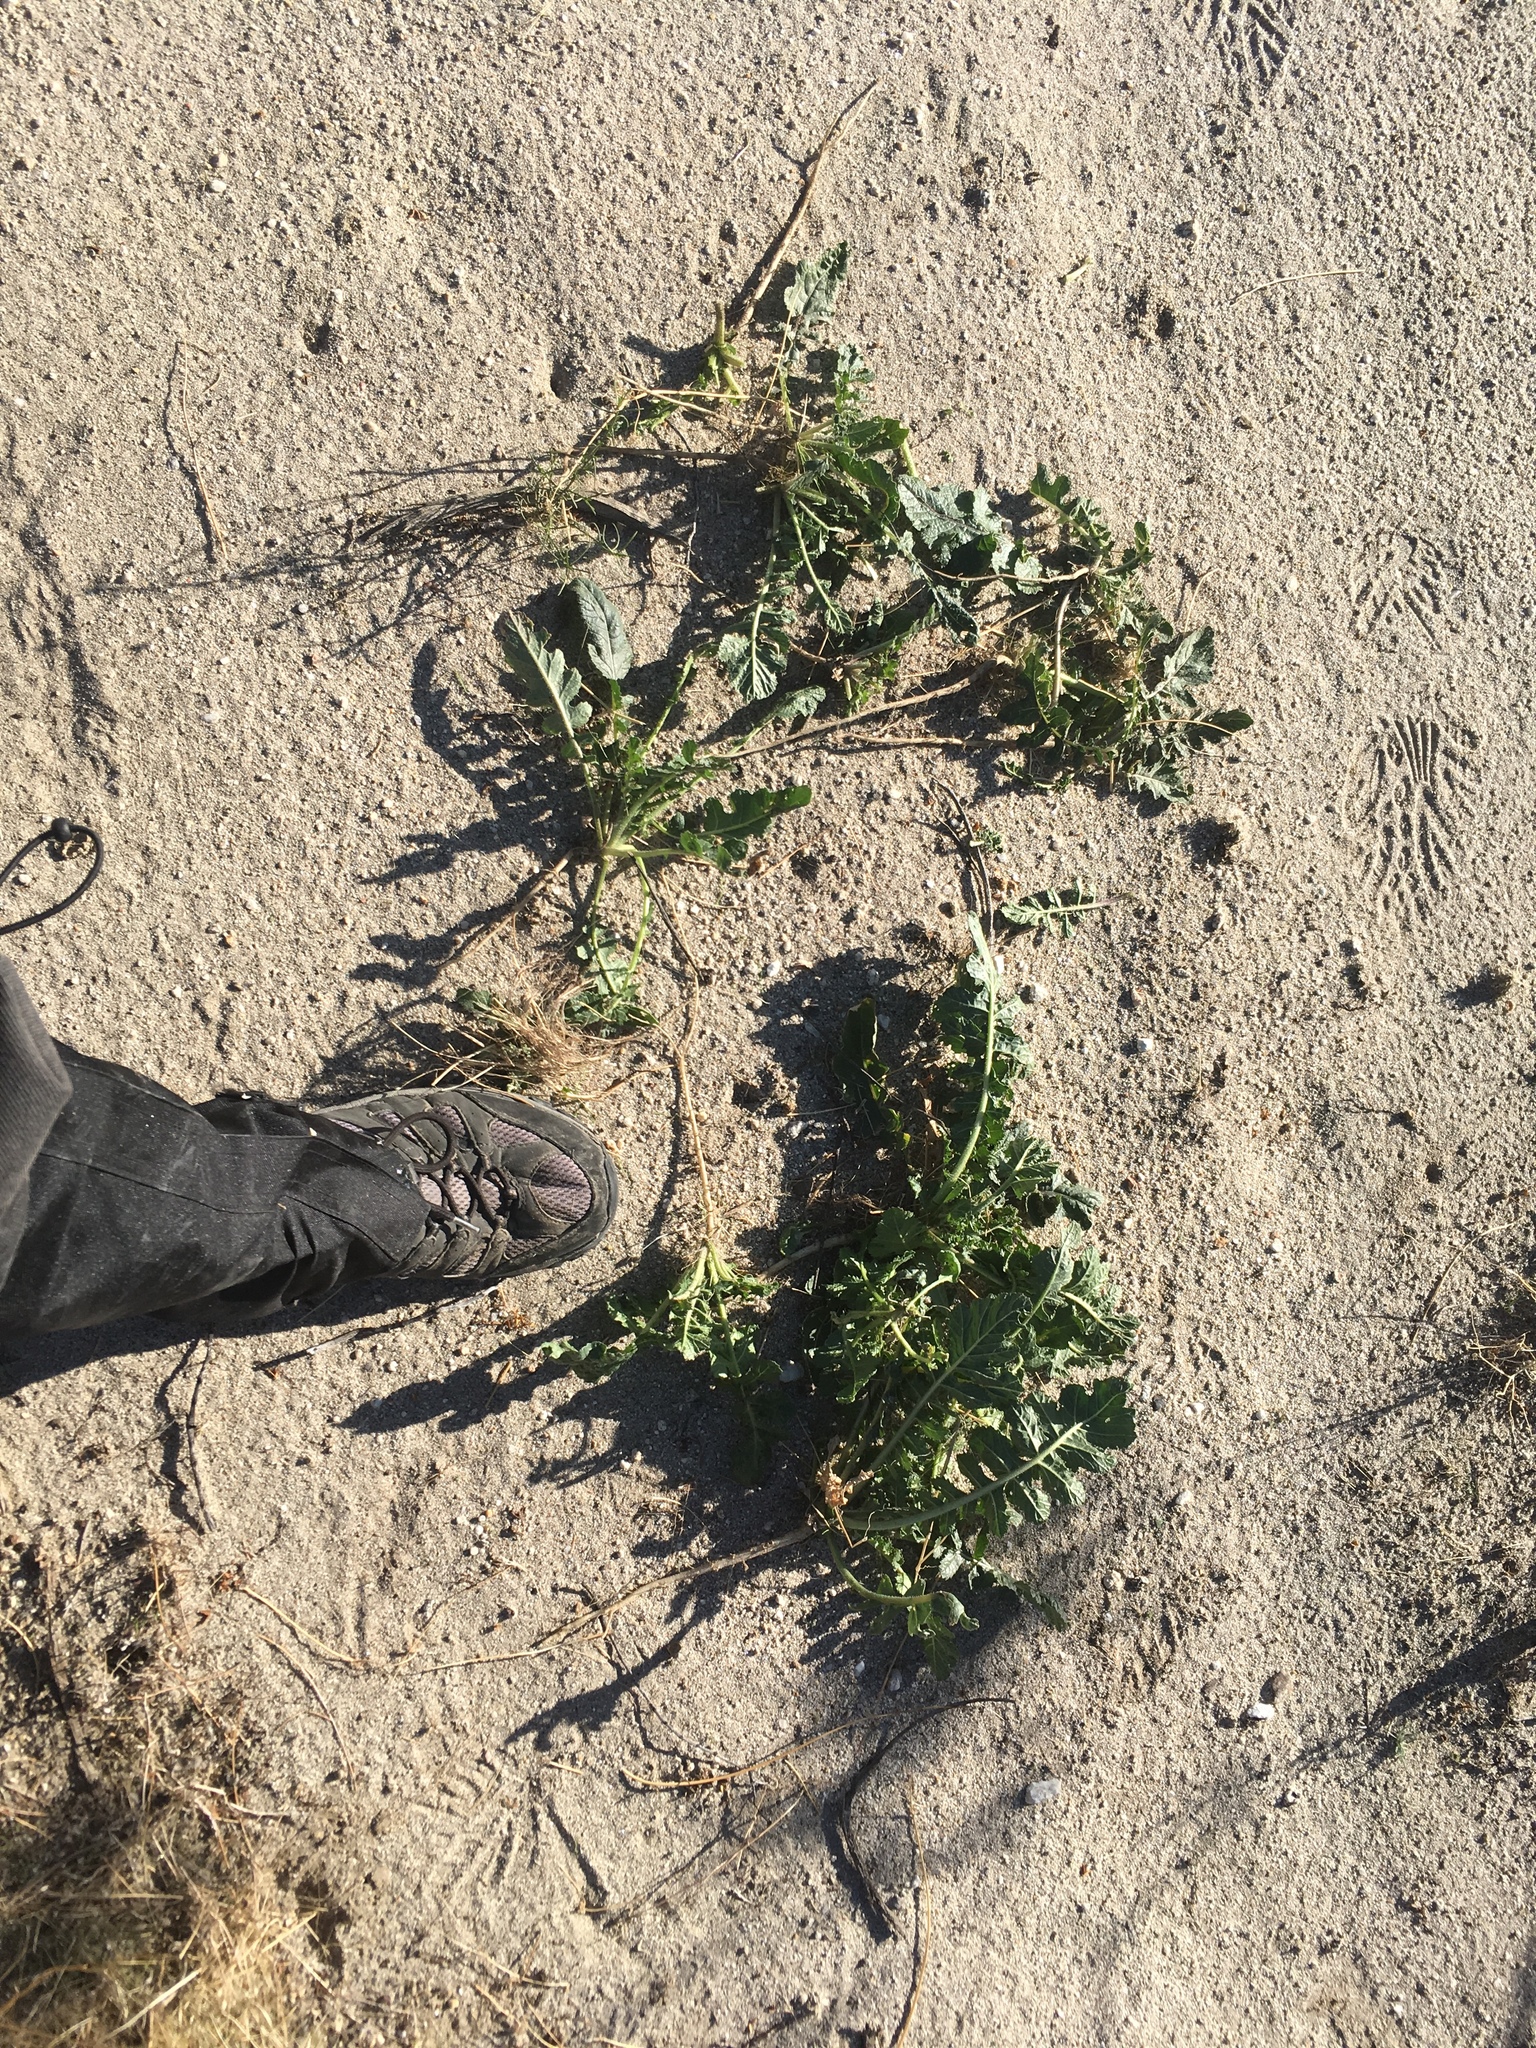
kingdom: Plantae
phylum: Tracheophyta
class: Magnoliopsida
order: Brassicales
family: Brassicaceae
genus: Brassica
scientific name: Brassica tournefortii
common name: Pale cabbage
